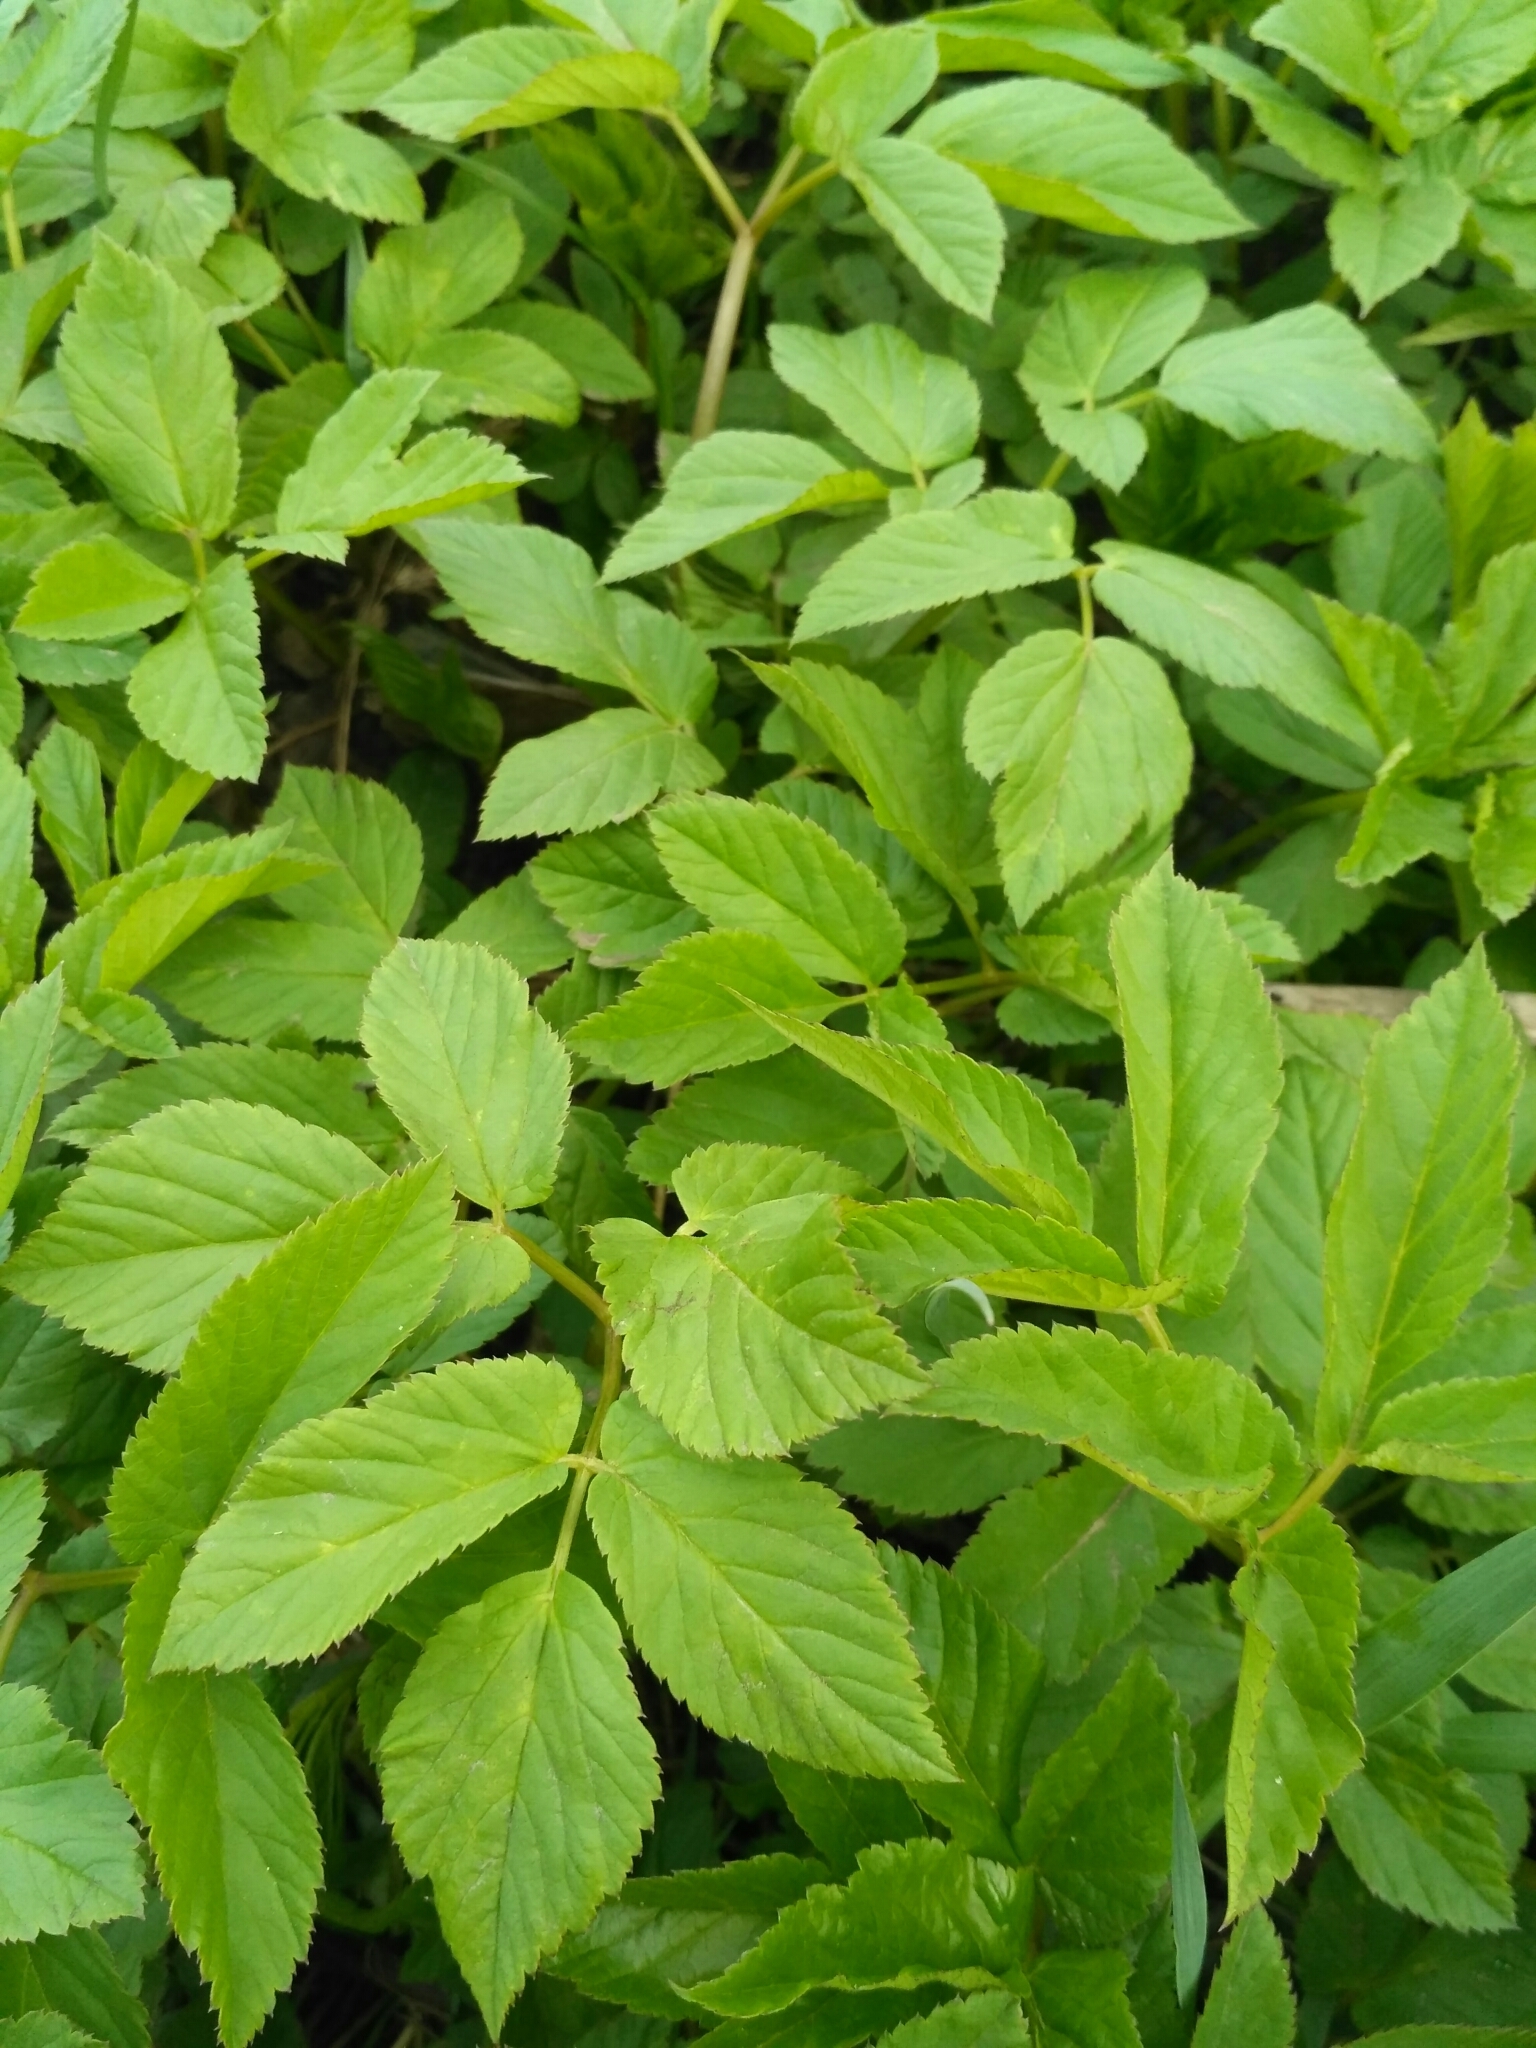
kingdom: Plantae
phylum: Tracheophyta
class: Magnoliopsida
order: Apiales
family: Apiaceae
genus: Aegopodium
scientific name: Aegopodium podagraria
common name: Ground-elder
